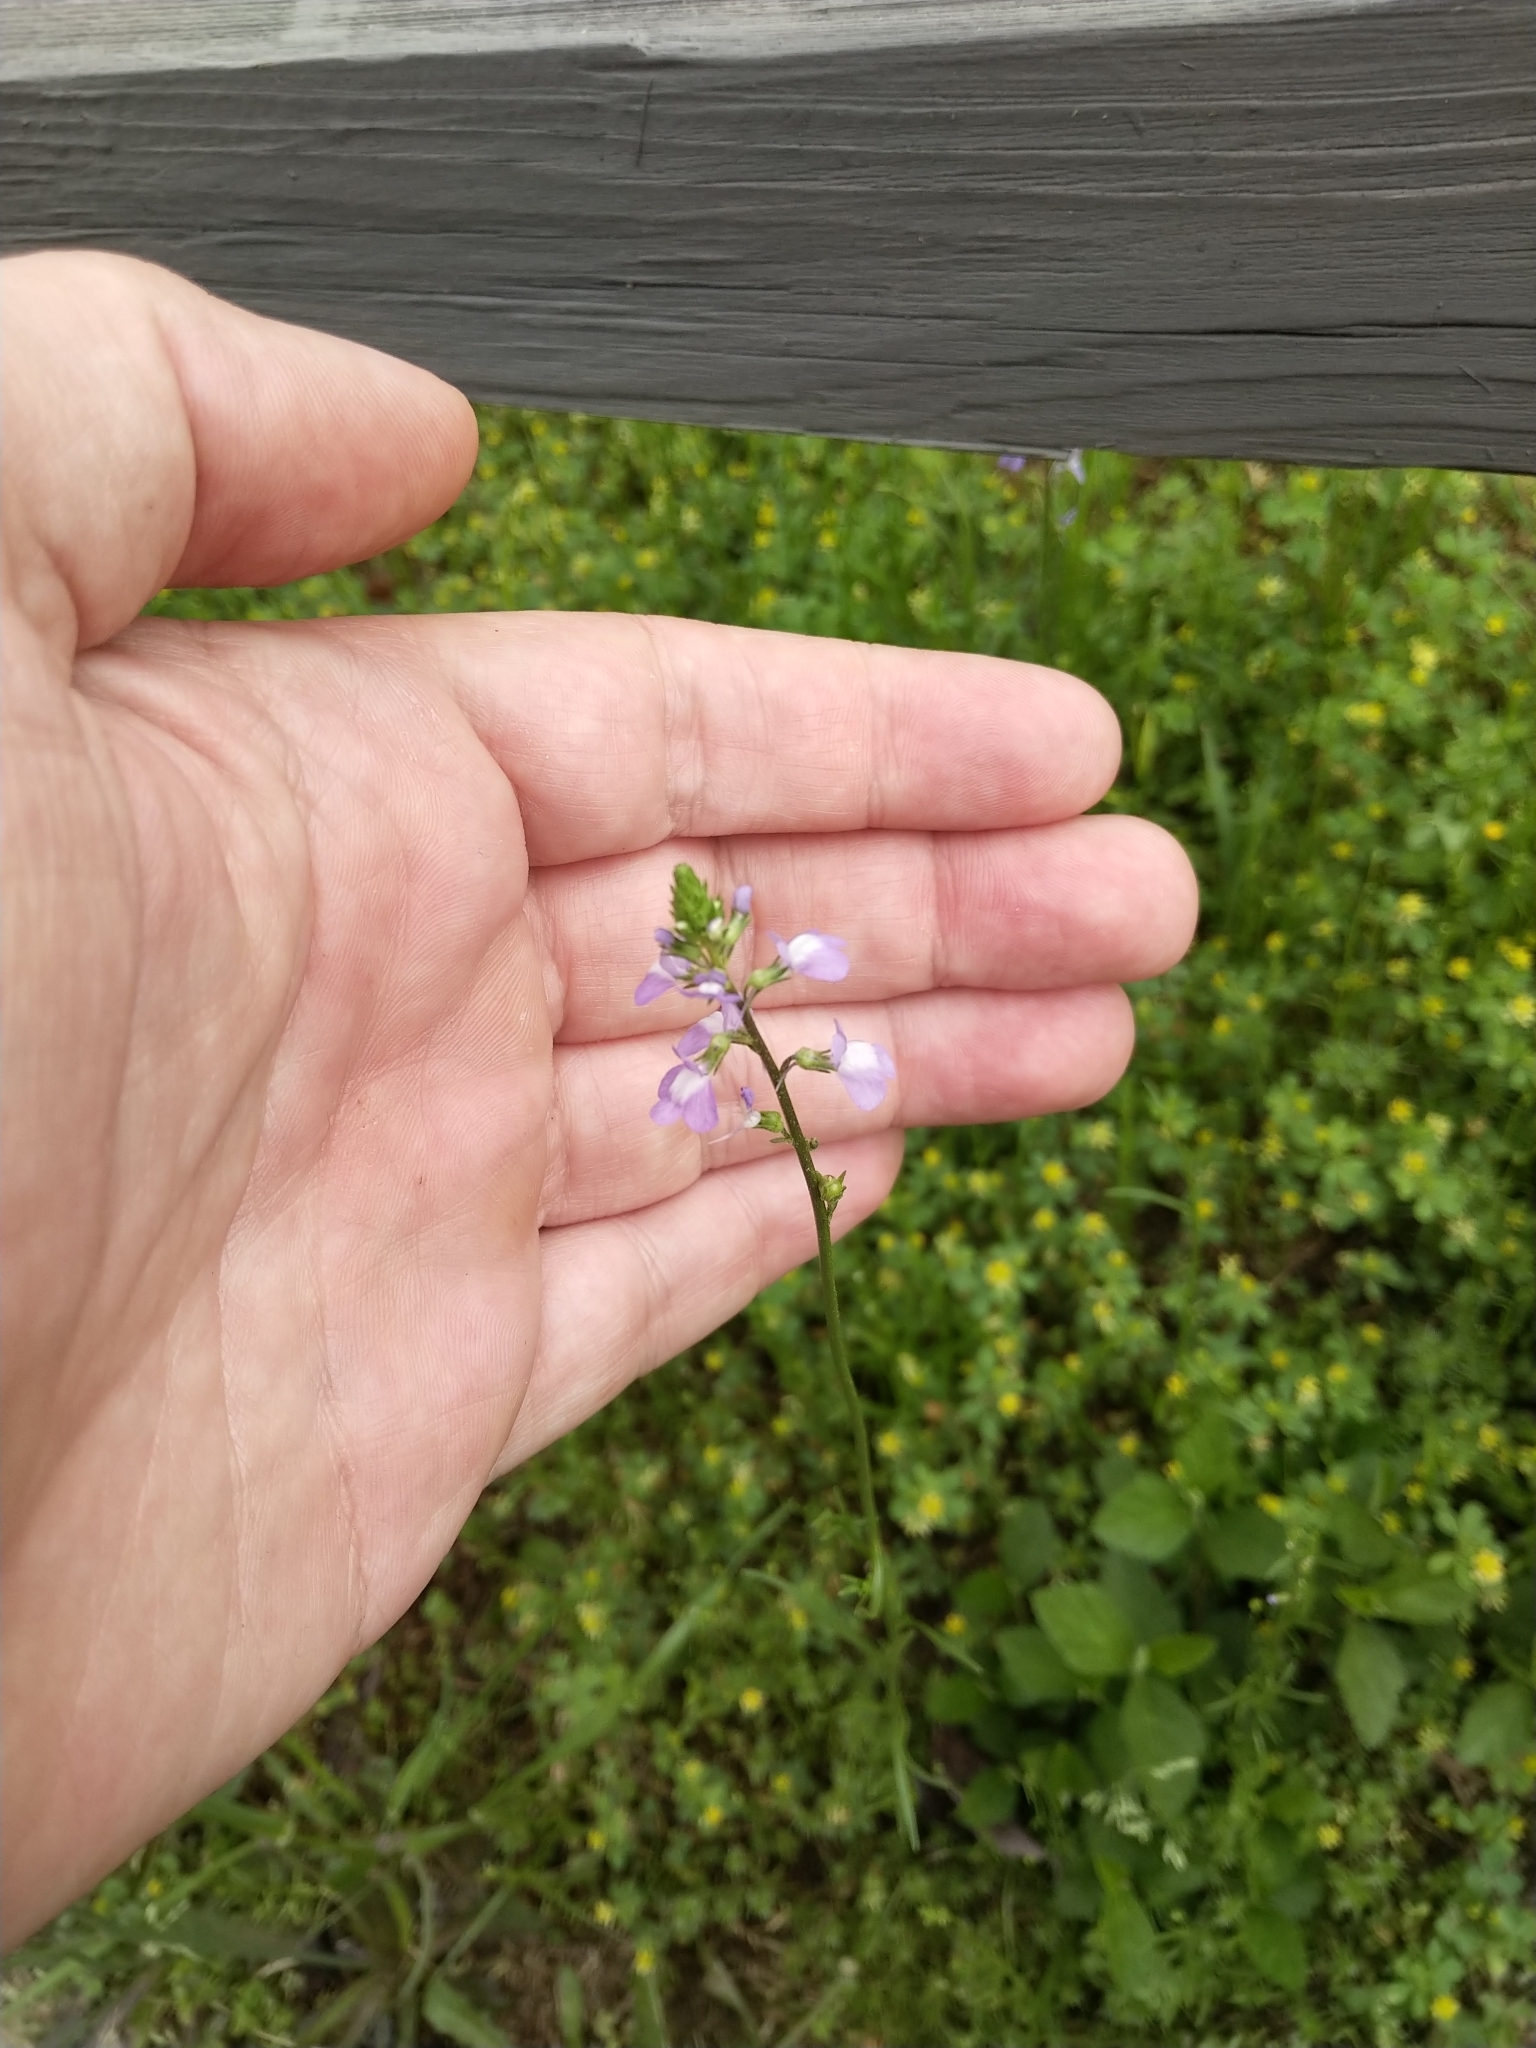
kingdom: Plantae
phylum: Tracheophyta
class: Magnoliopsida
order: Lamiales
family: Plantaginaceae
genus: Nuttallanthus
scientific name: Nuttallanthus canadensis
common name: Blue toadflax
